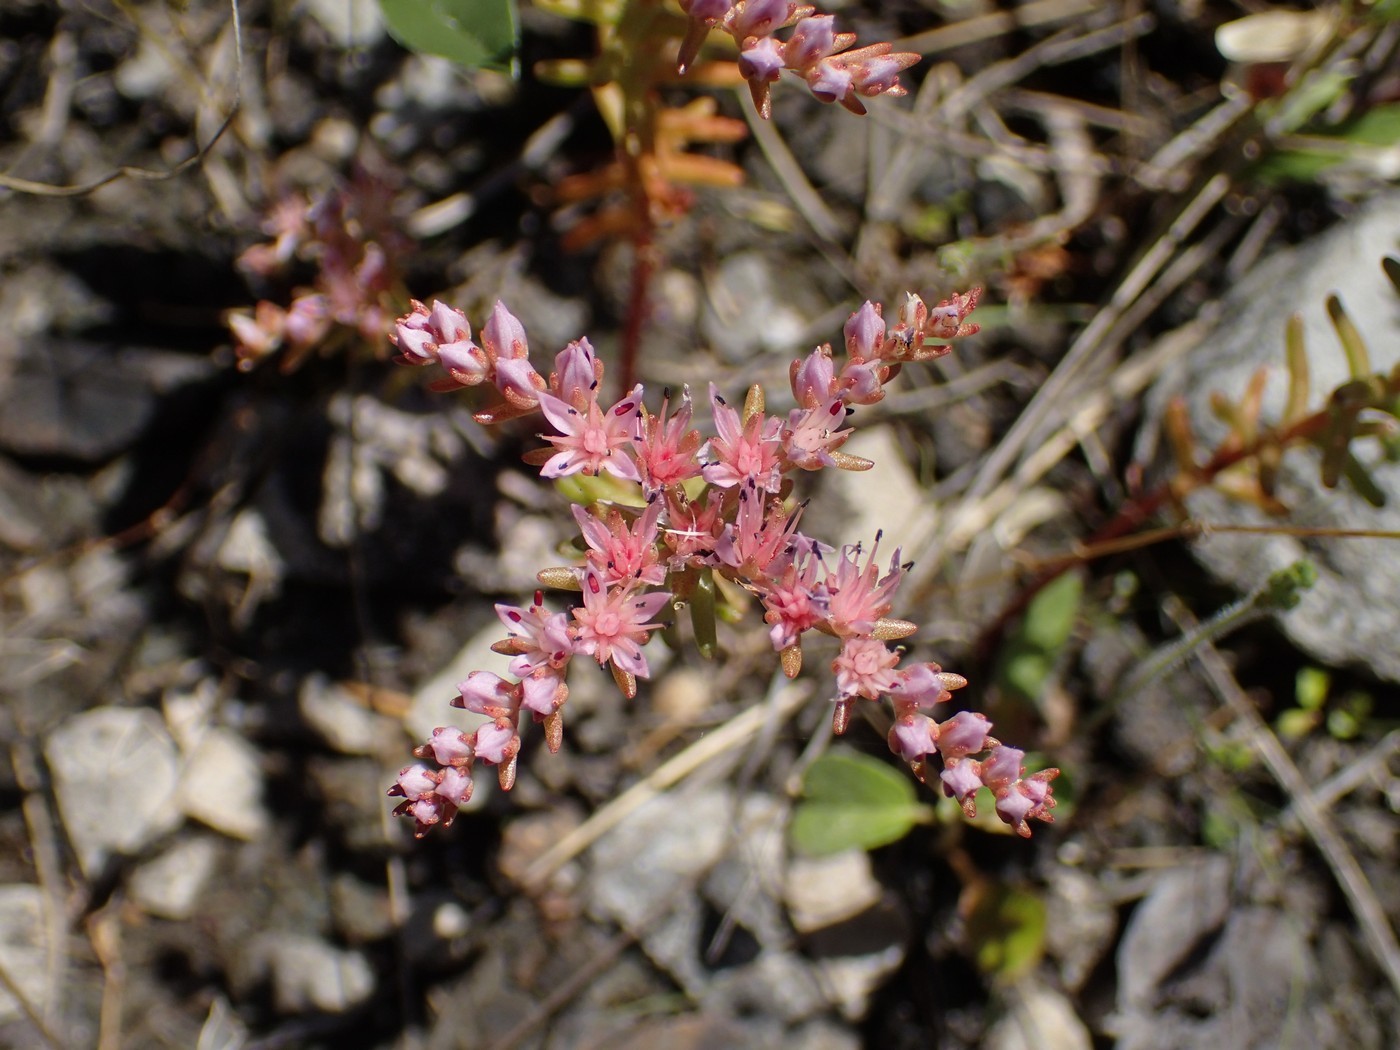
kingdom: Plantae
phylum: Tracheophyta
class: Magnoliopsida
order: Saxifragales
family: Crassulaceae
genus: Sedum
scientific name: Sedum pulchellum
